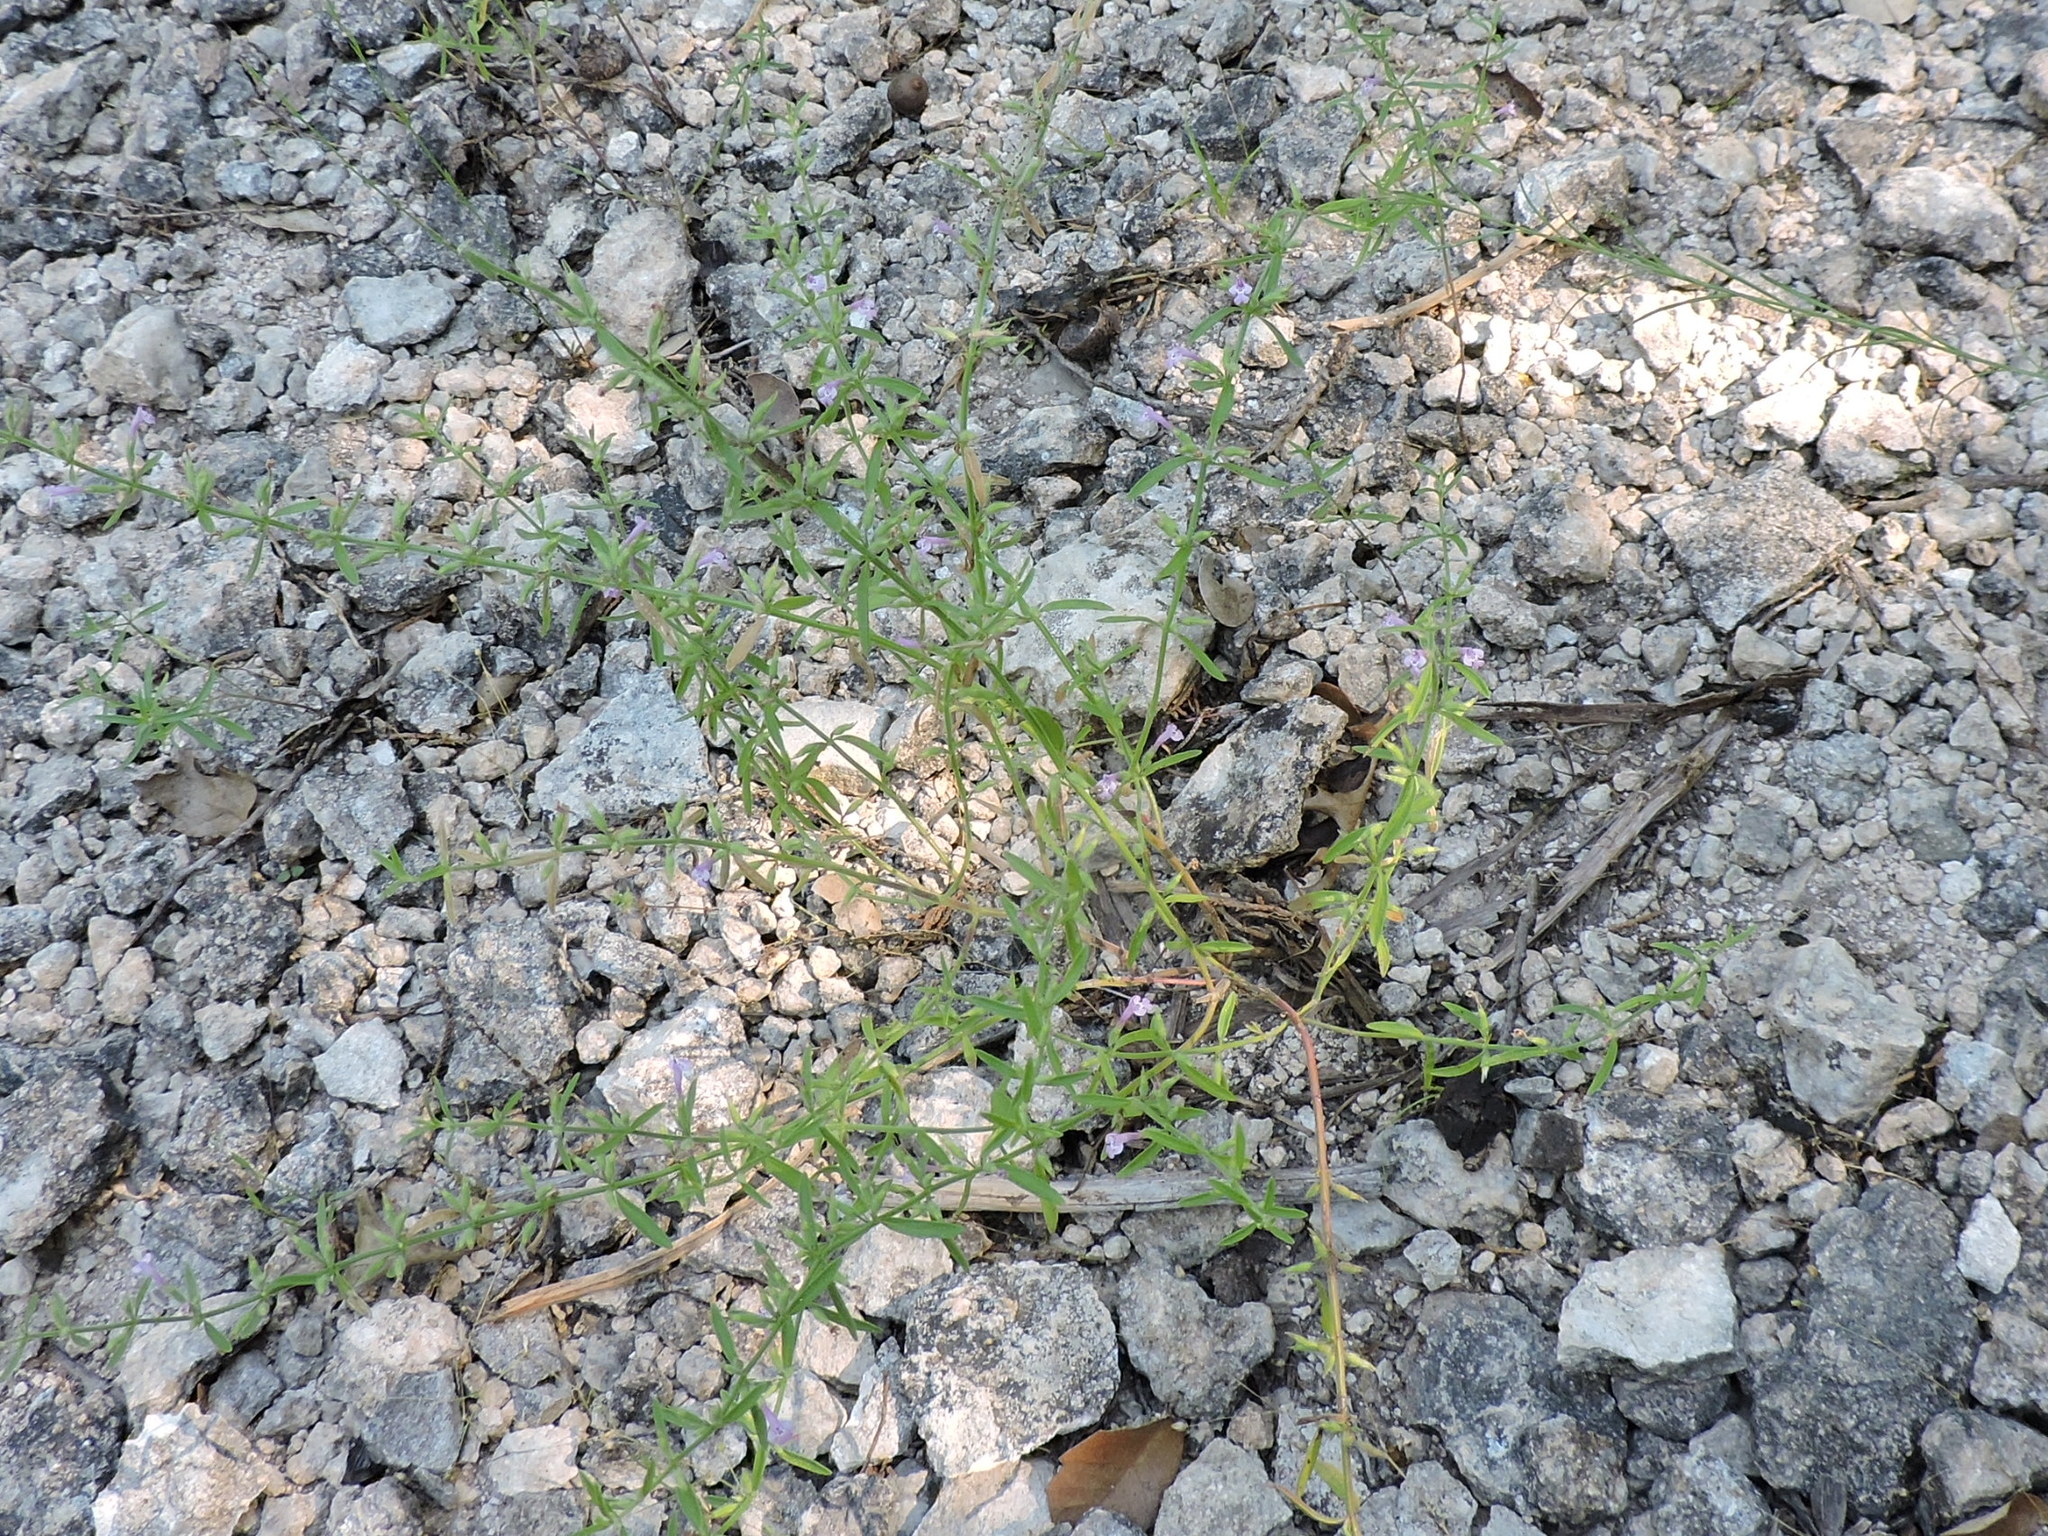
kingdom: Plantae
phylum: Tracheophyta
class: Magnoliopsida
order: Lamiales
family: Lamiaceae
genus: Hedeoma
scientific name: Hedeoma drummondii
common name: New mexico pennyroyal
